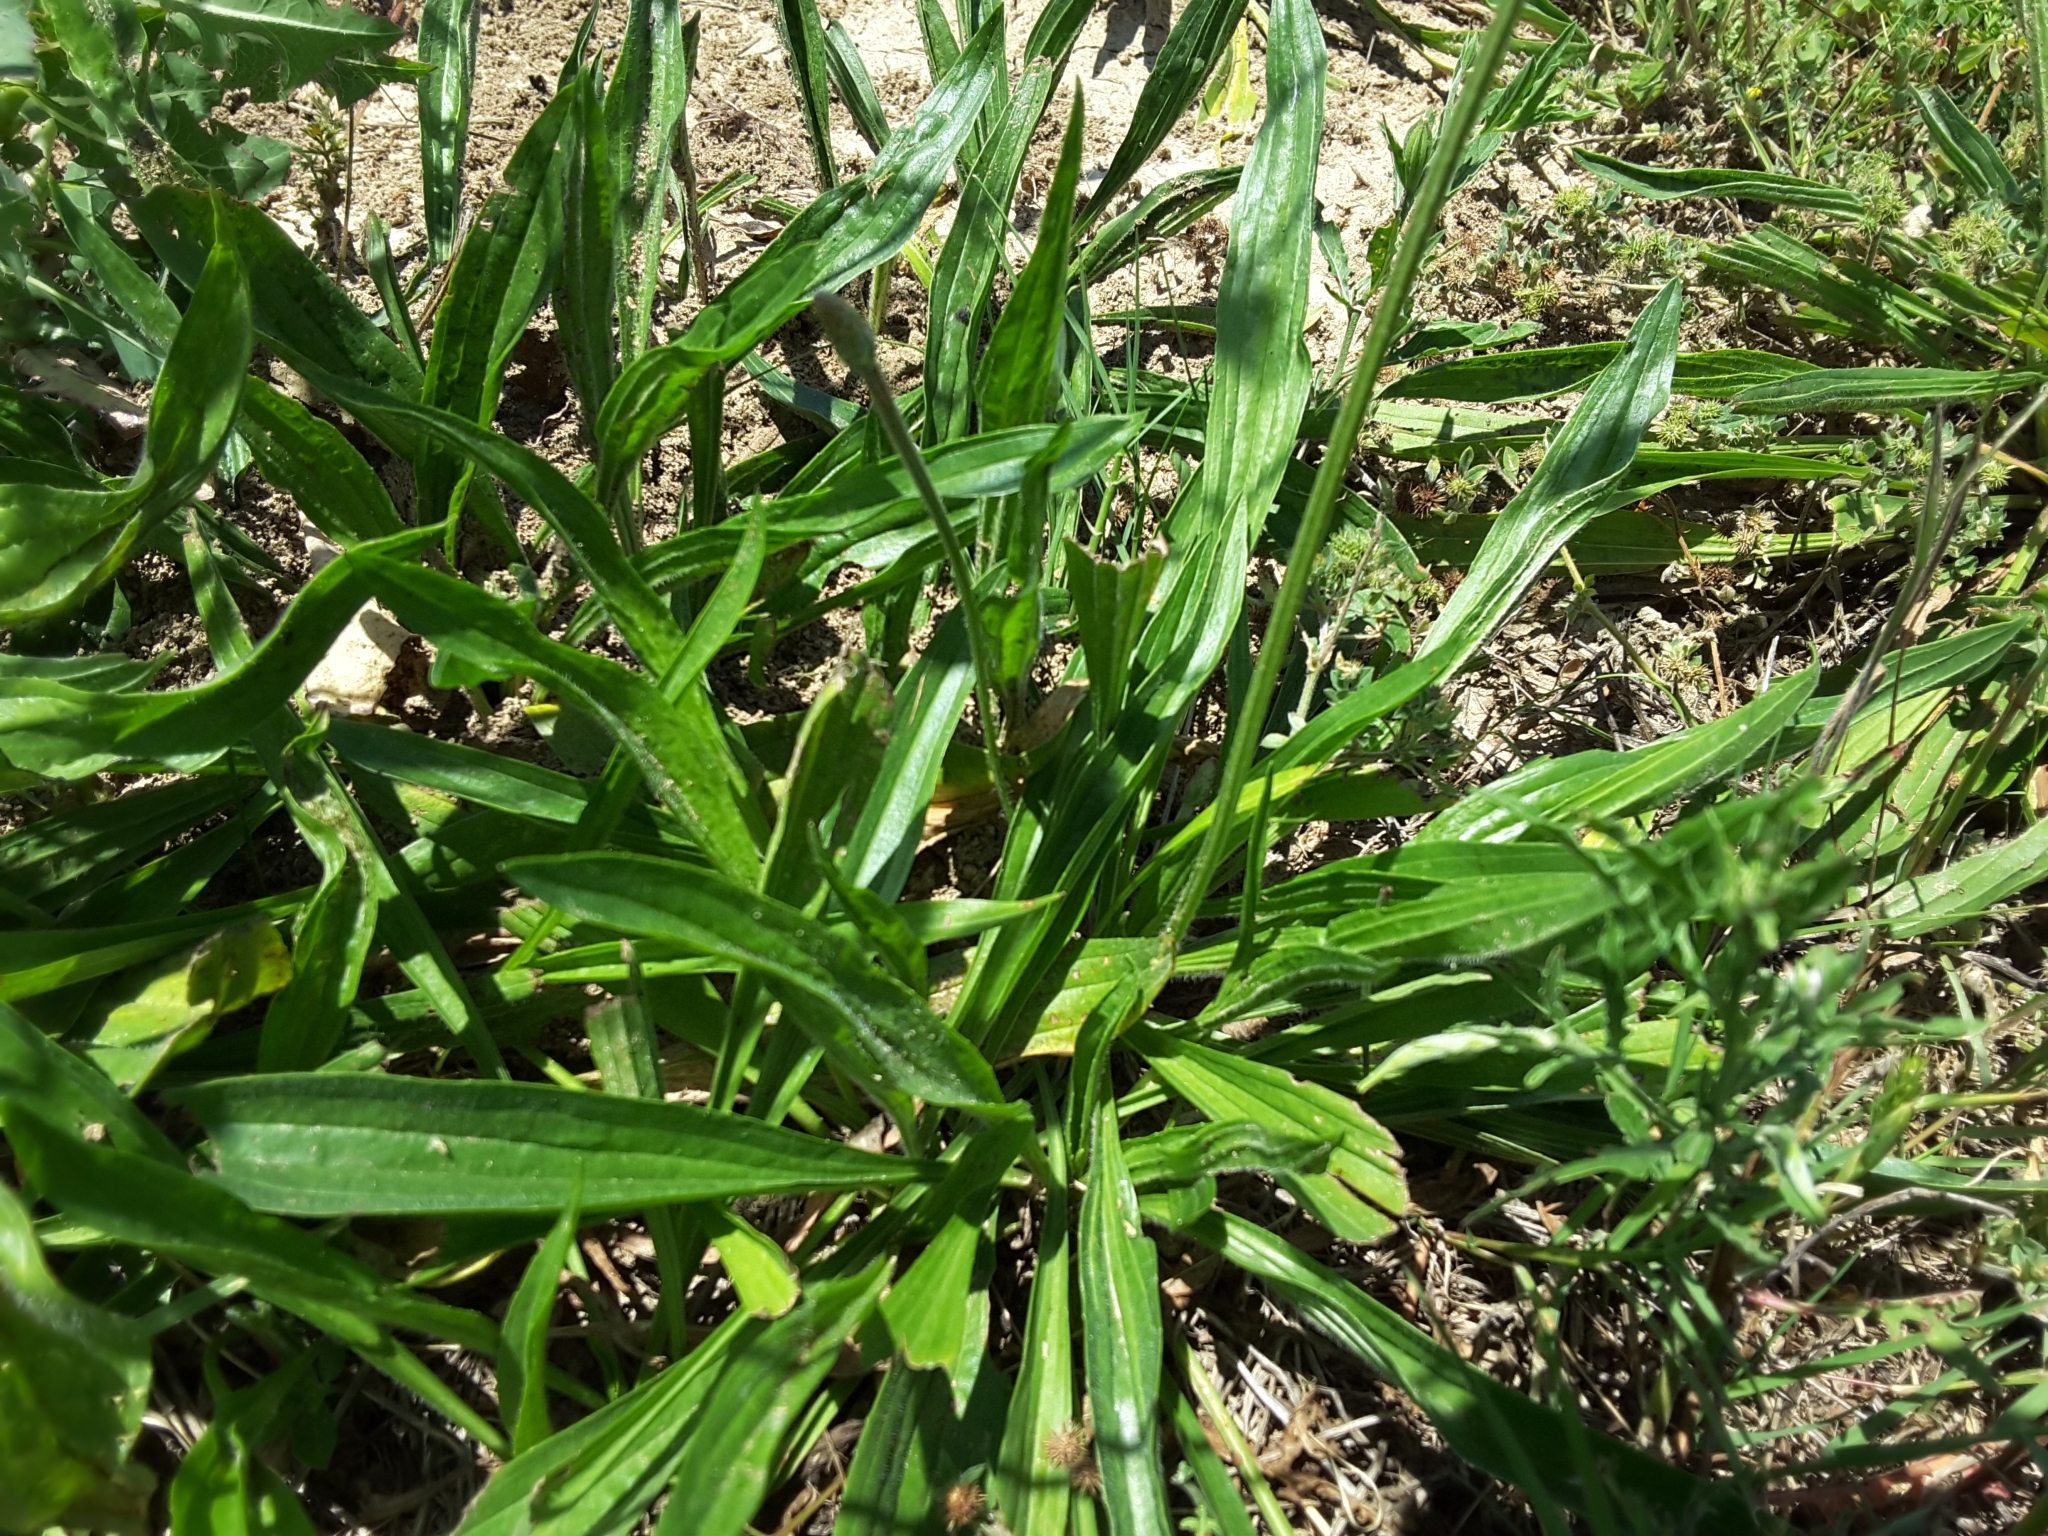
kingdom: Plantae
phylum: Tracheophyta
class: Magnoliopsida
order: Lamiales
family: Plantaginaceae
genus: Plantago
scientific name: Plantago lanceolata
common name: Ribwort plantain
